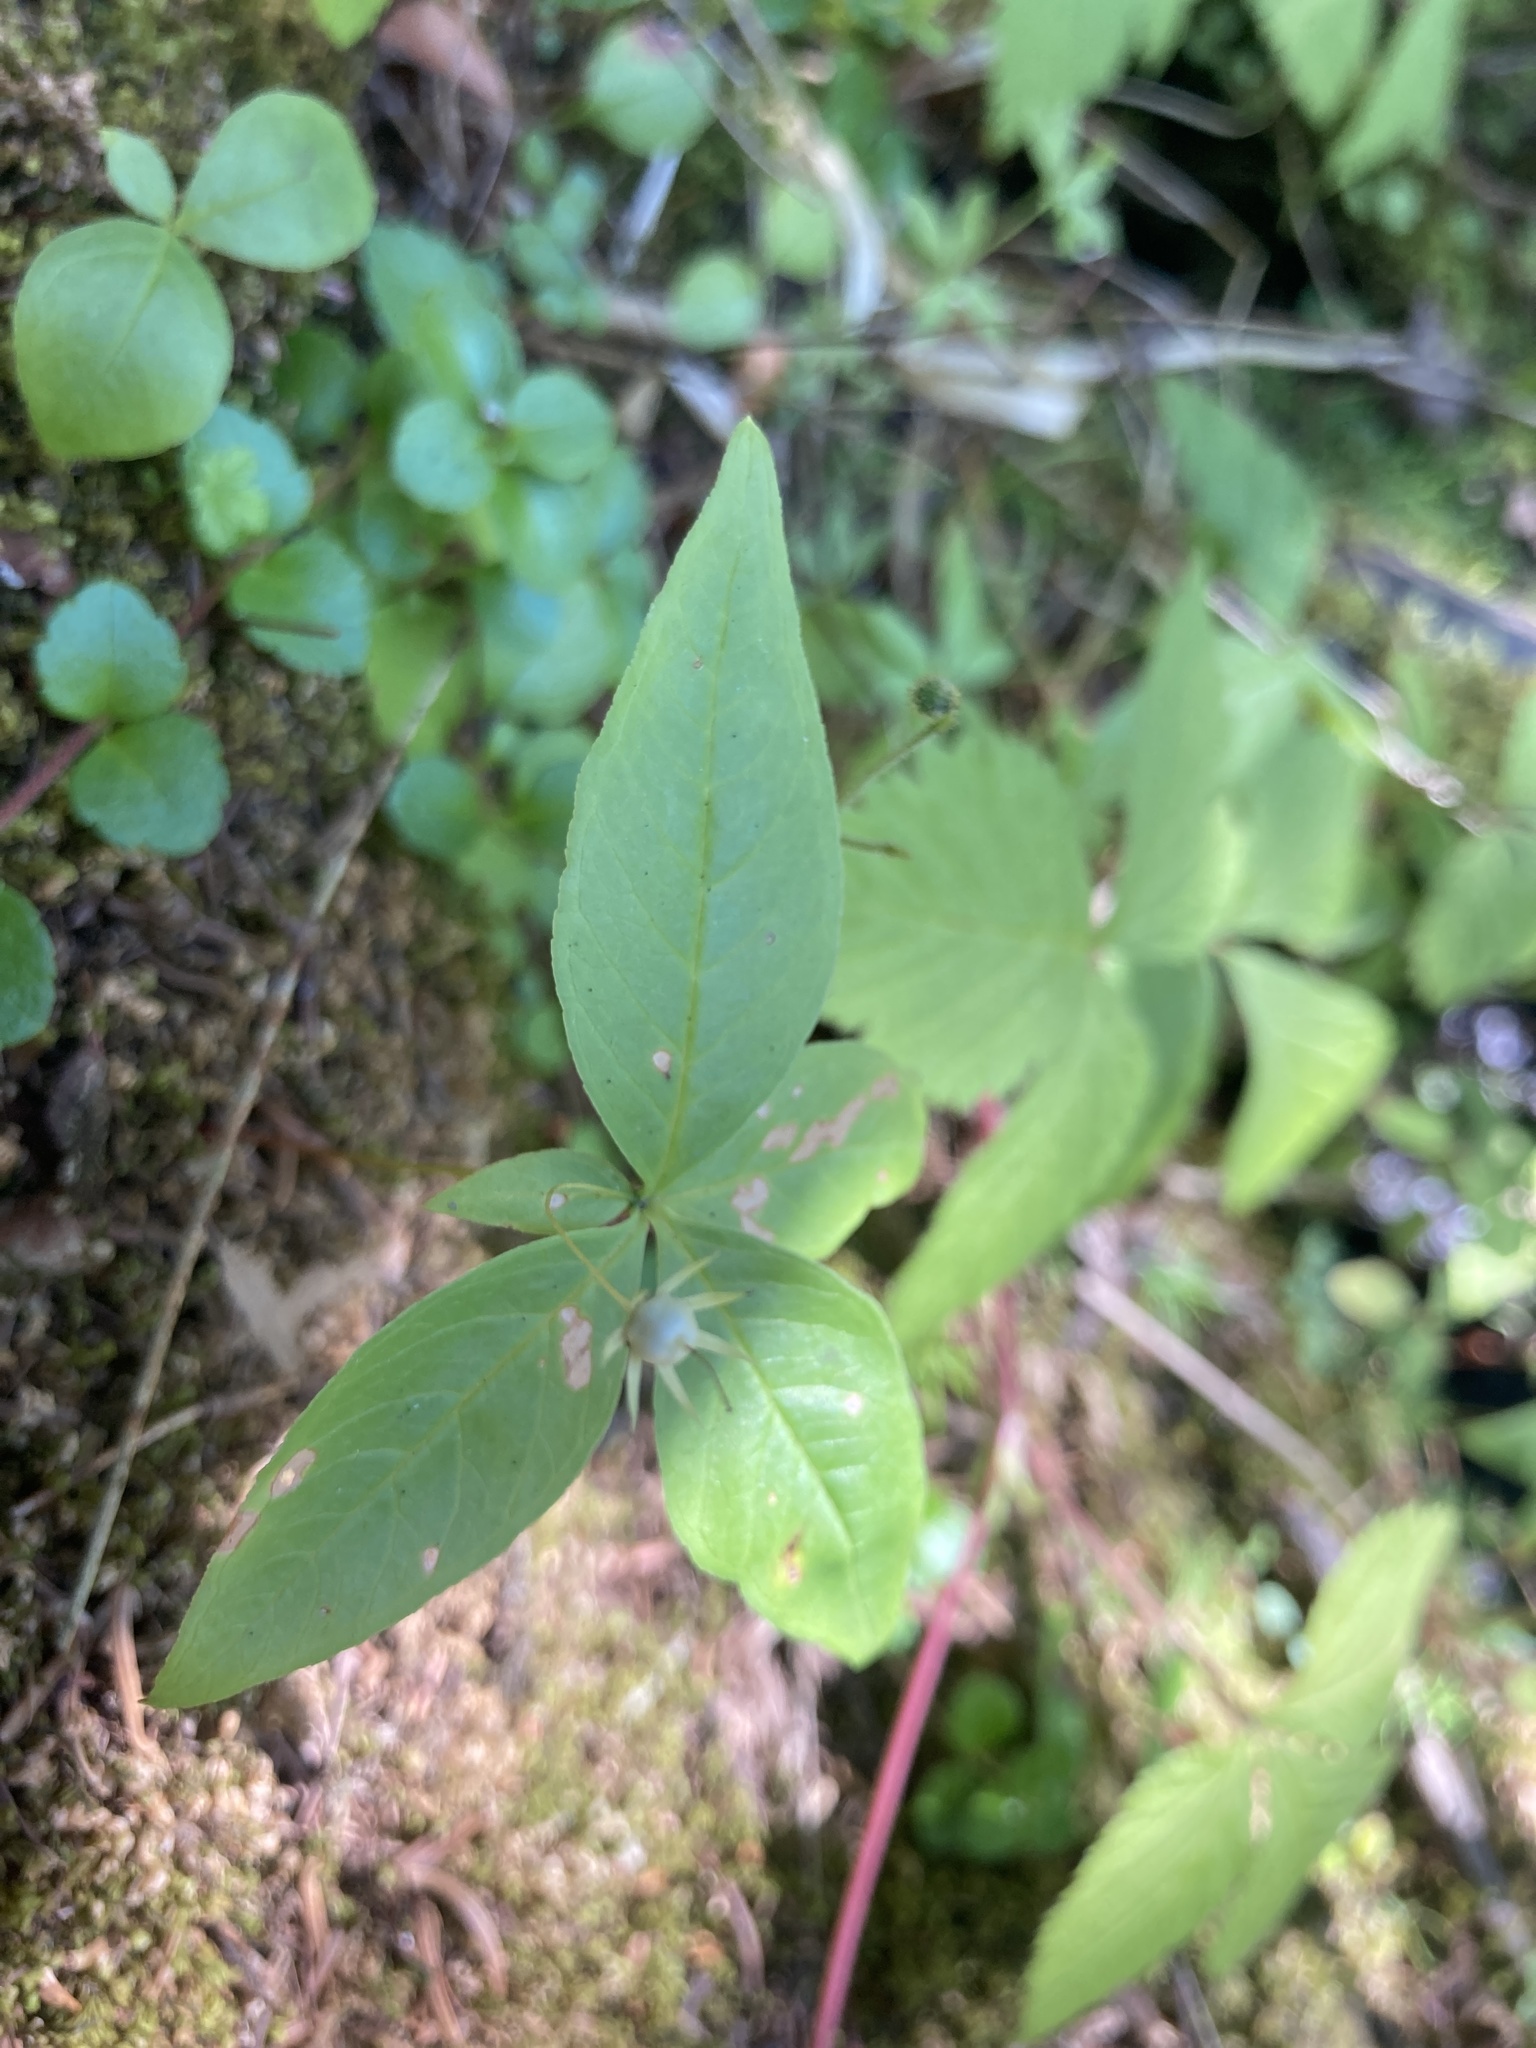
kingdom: Plantae
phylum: Tracheophyta
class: Magnoliopsida
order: Ericales
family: Primulaceae
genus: Lysimachia
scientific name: Lysimachia borealis
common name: American starflower
